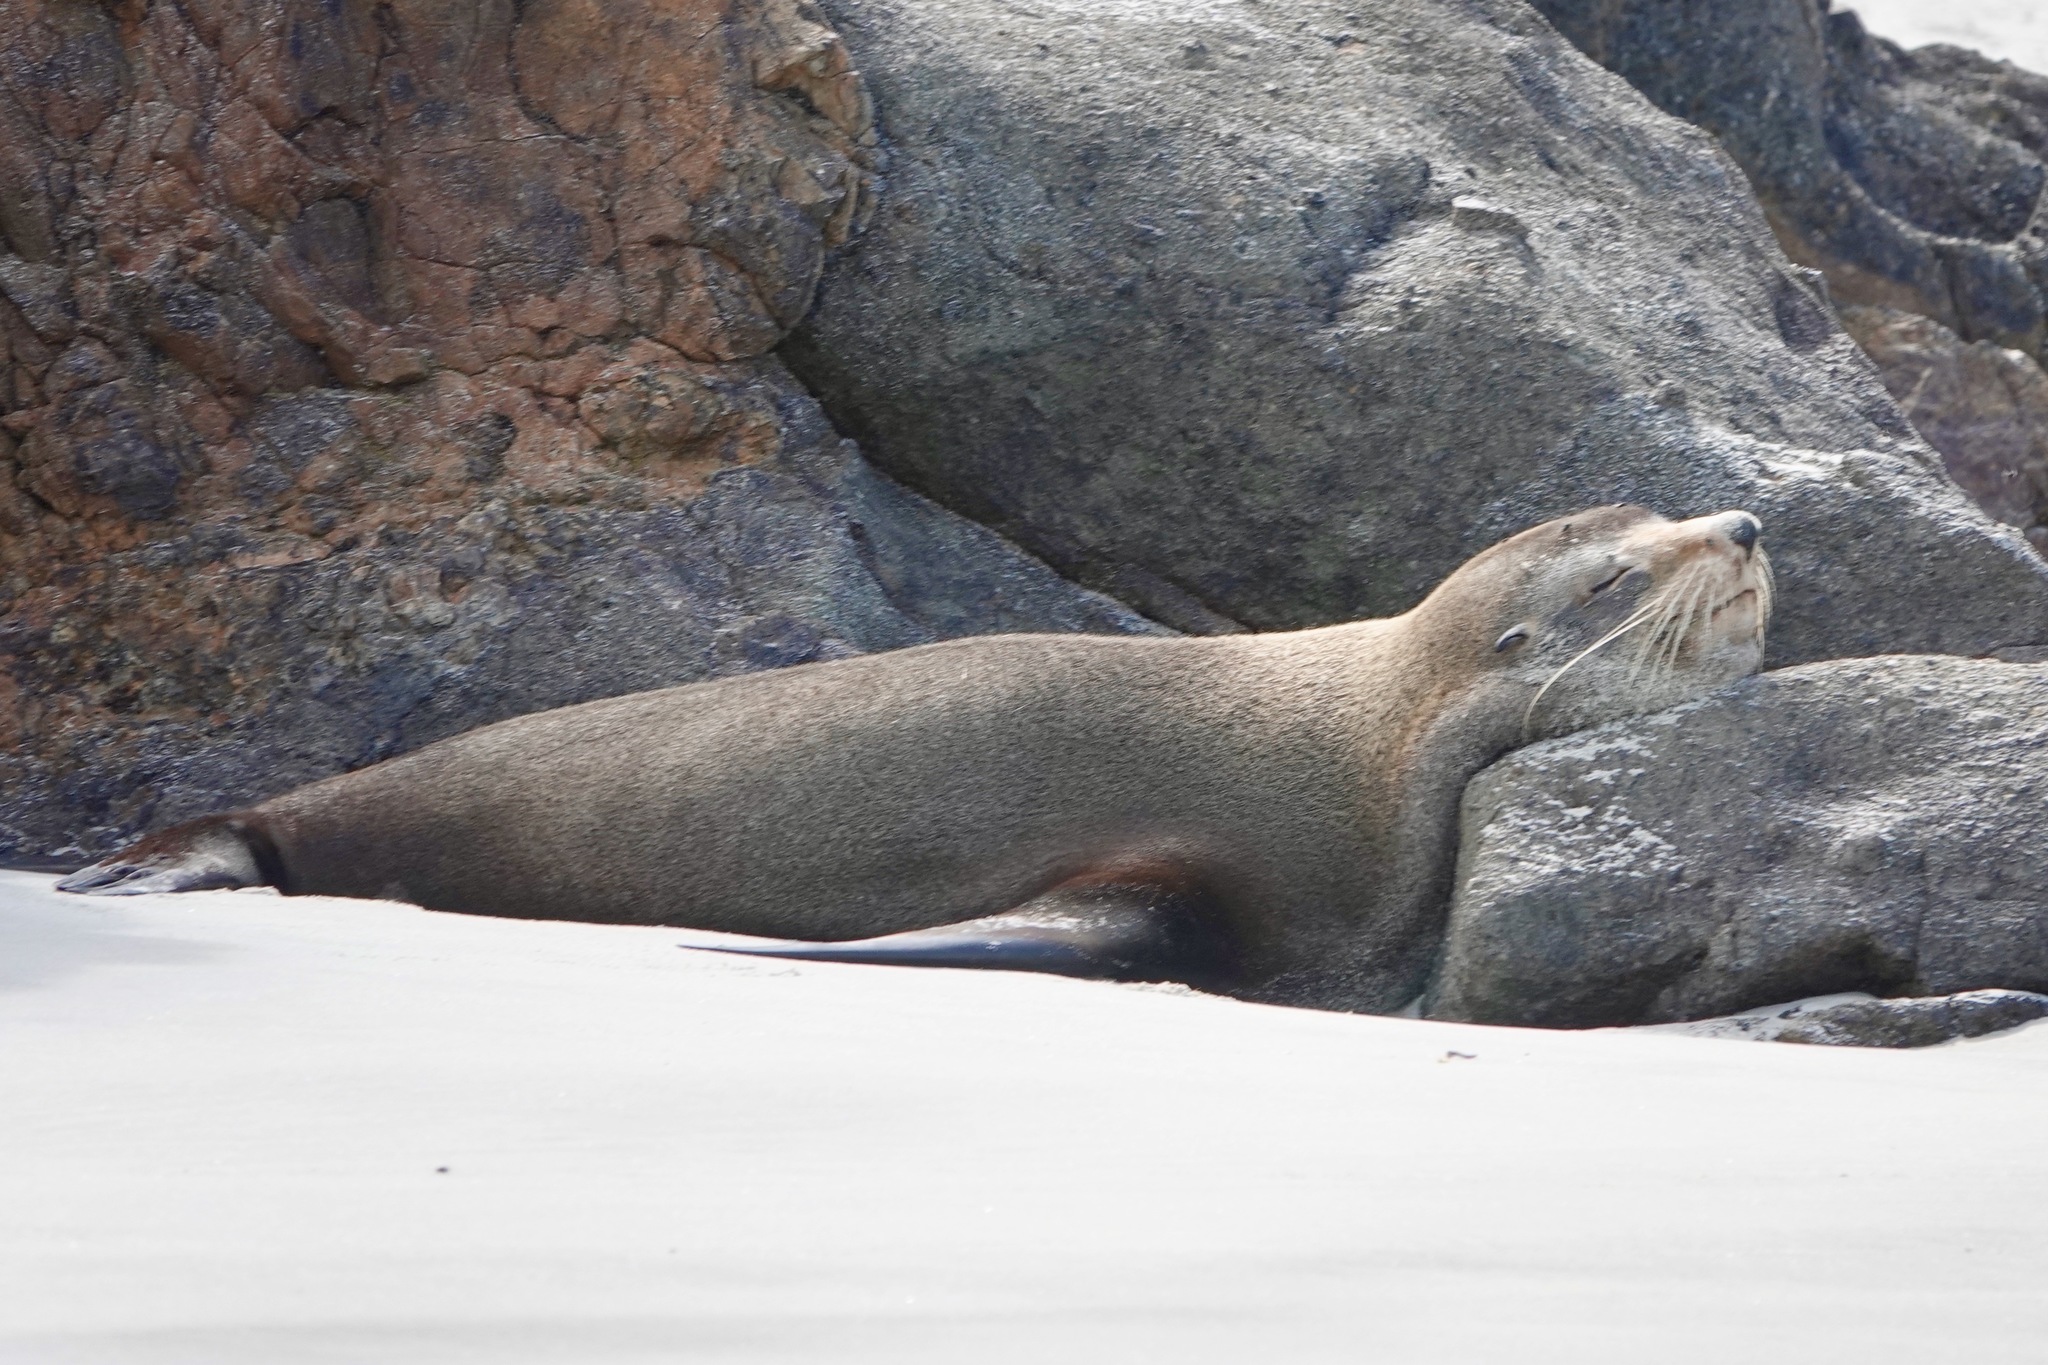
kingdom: Animalia
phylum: Chordata
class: Mammalia
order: Carnivora
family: Otariidae
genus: Arctocephalus
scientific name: Arctocephalus forsteri
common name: New zealand fur seal
